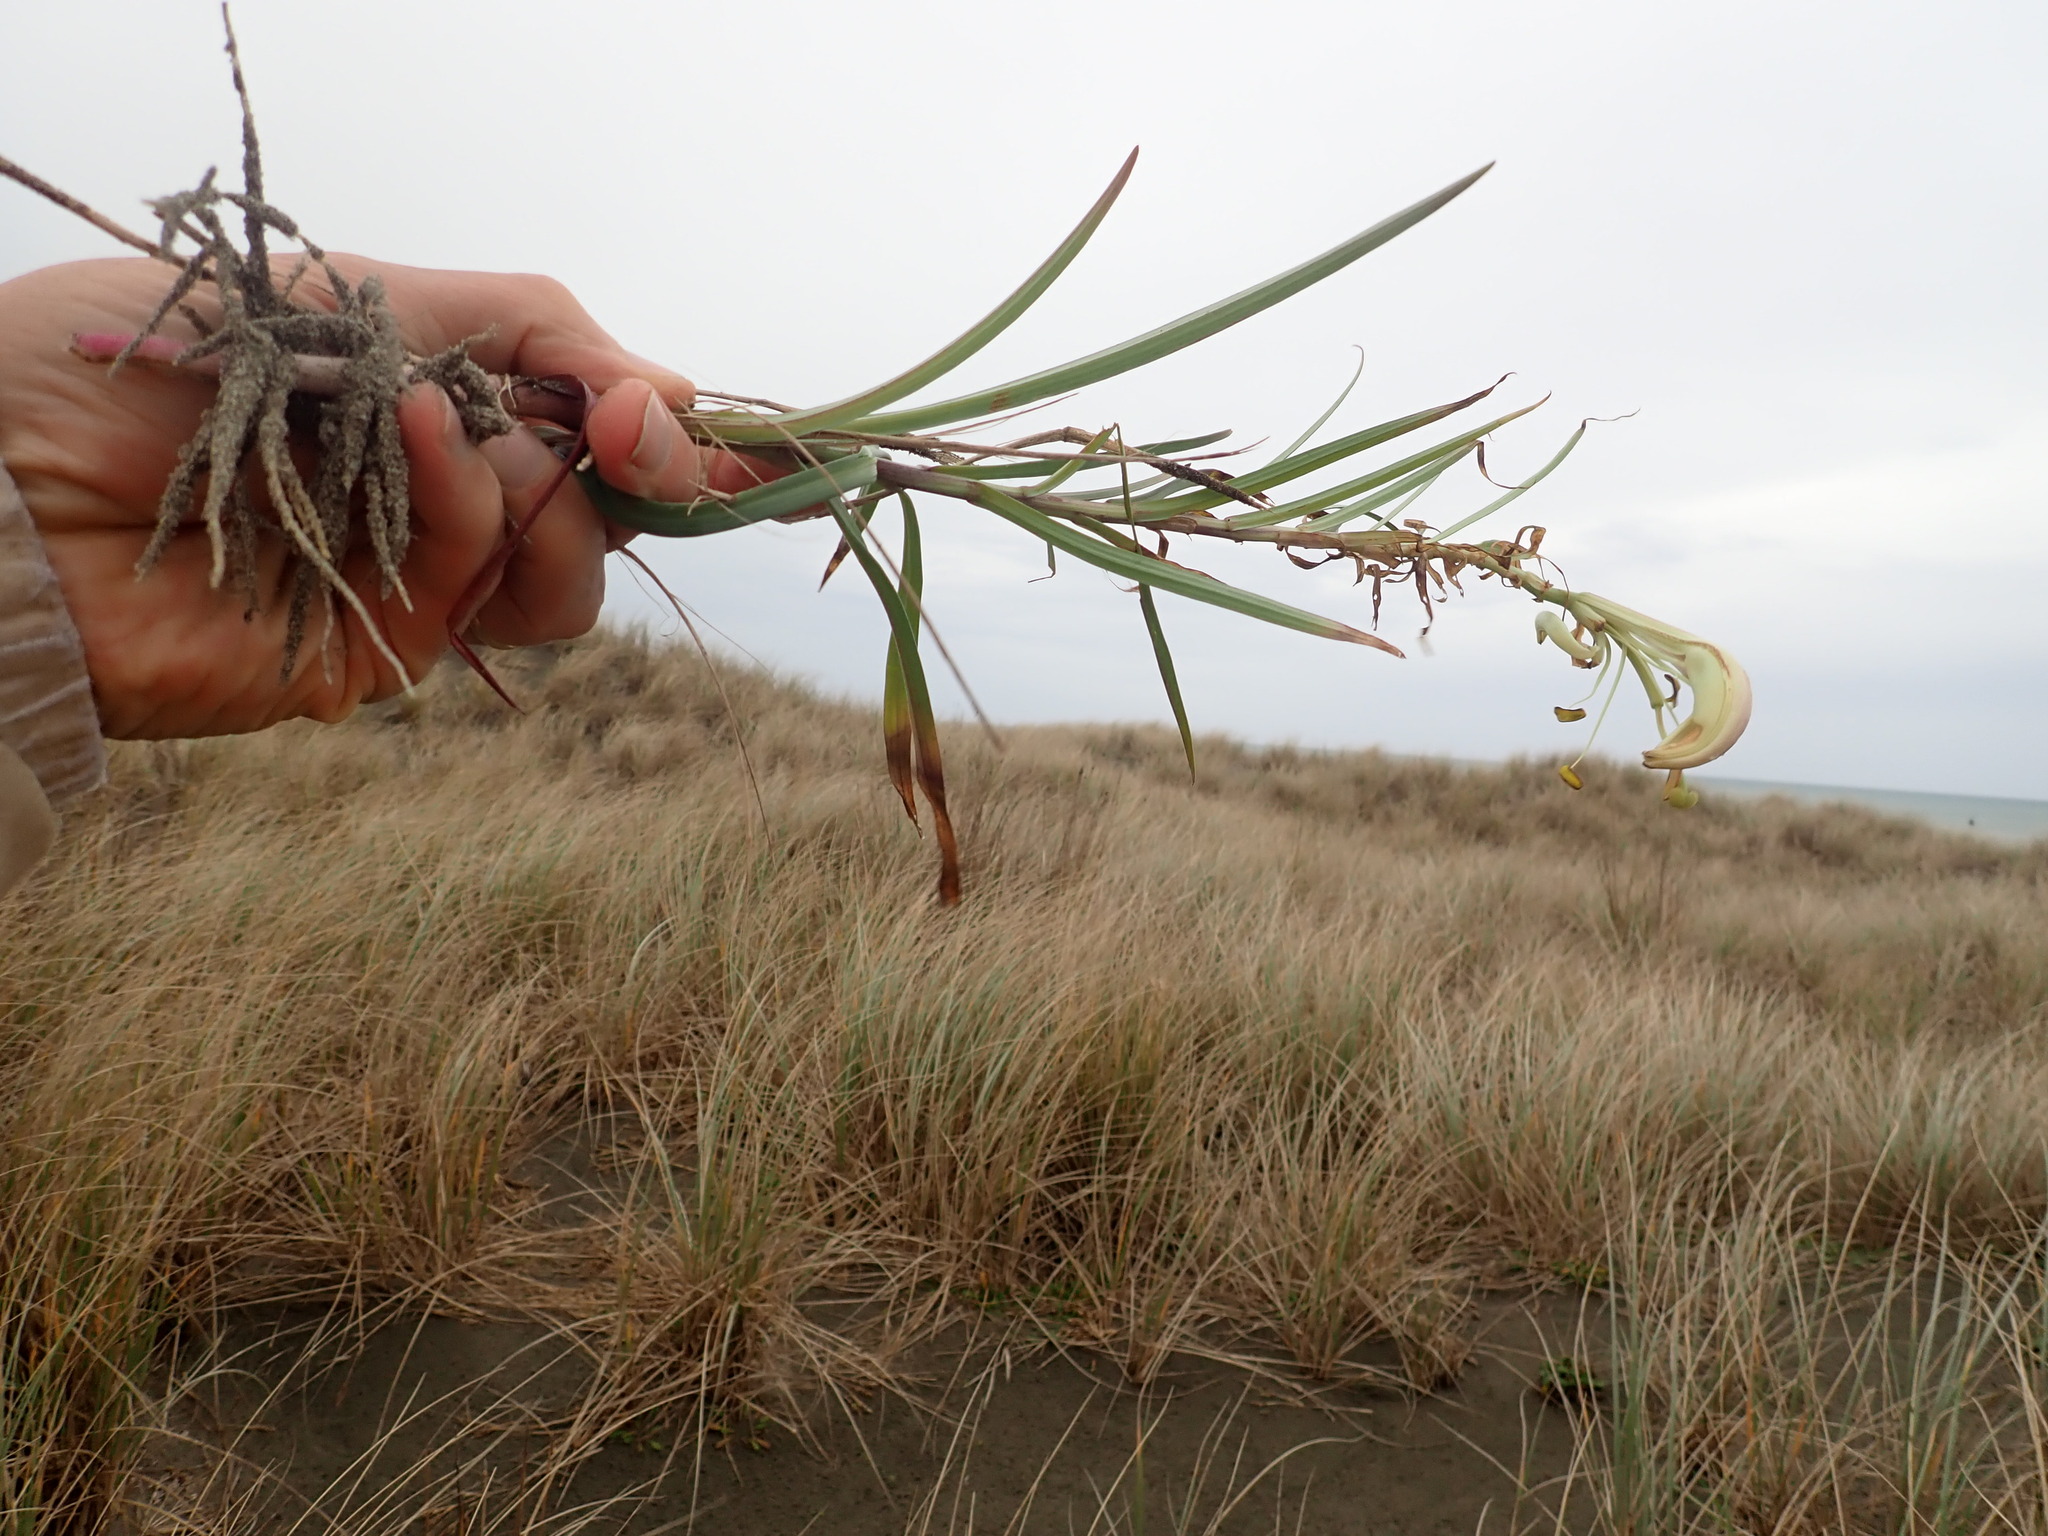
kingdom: Plantae
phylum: Tracheophyta
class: Liliopsida
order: Liliales
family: Liliaceae
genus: Lilium
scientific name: Lilium formosanum
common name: Formosa lily
